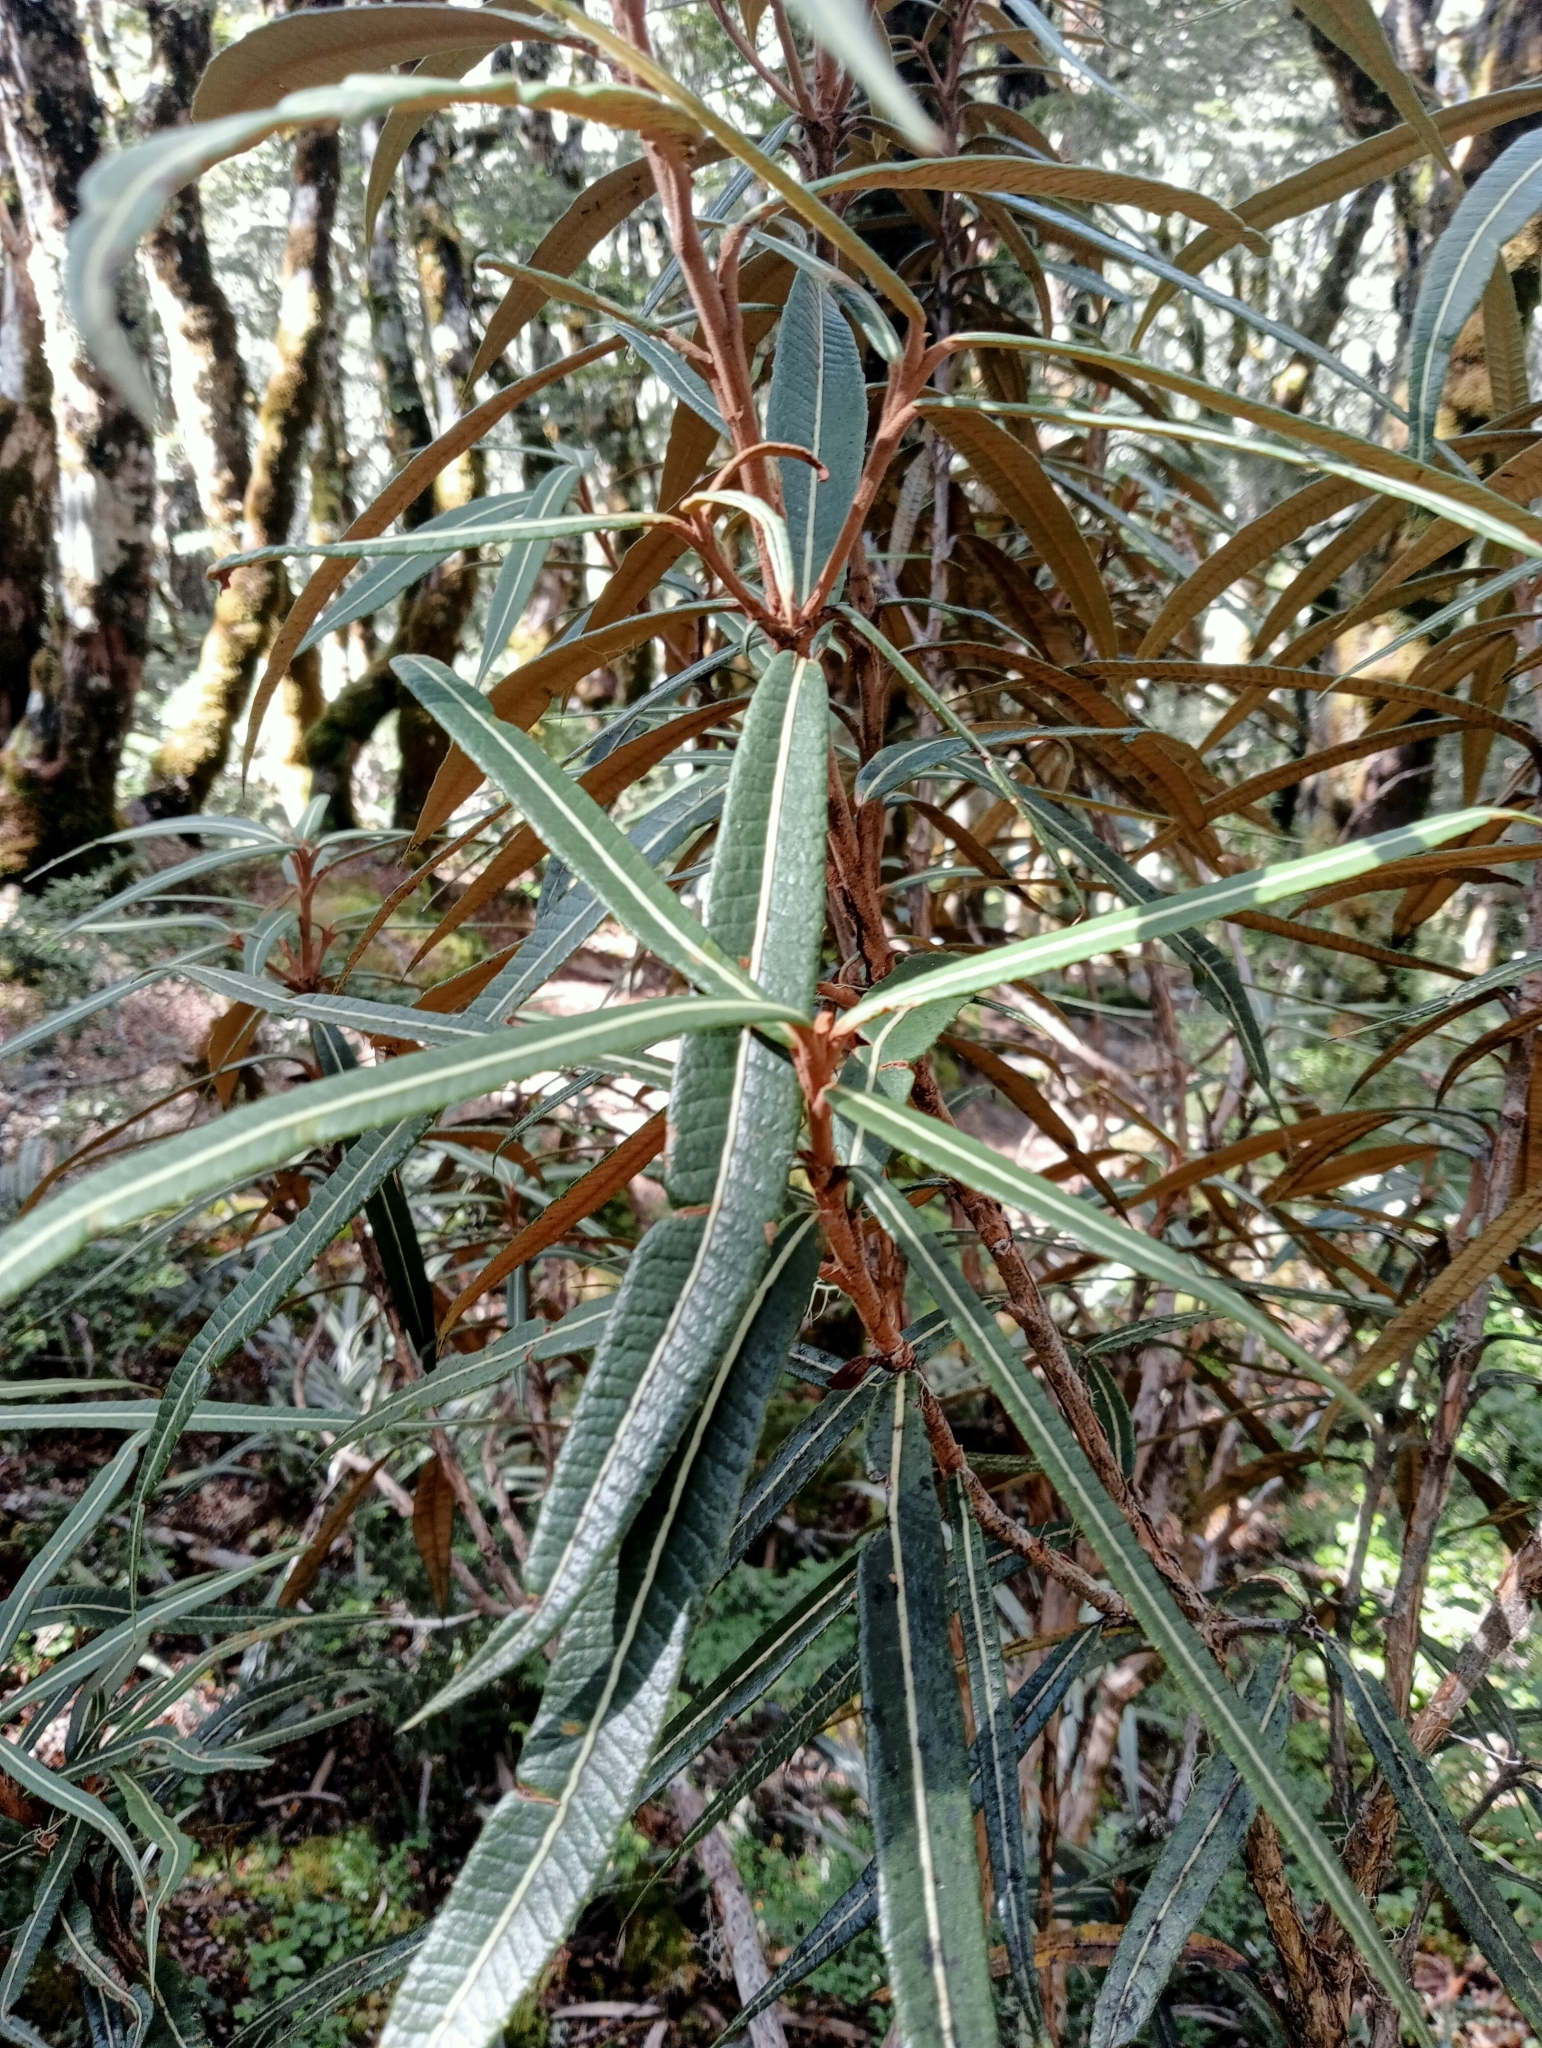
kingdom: Plantae
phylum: Tracheophyta
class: Magnoliopsida
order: Asterales
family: Asteraceae
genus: Olearia
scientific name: Olearia lacunosa
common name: Lancewood tree daisy
